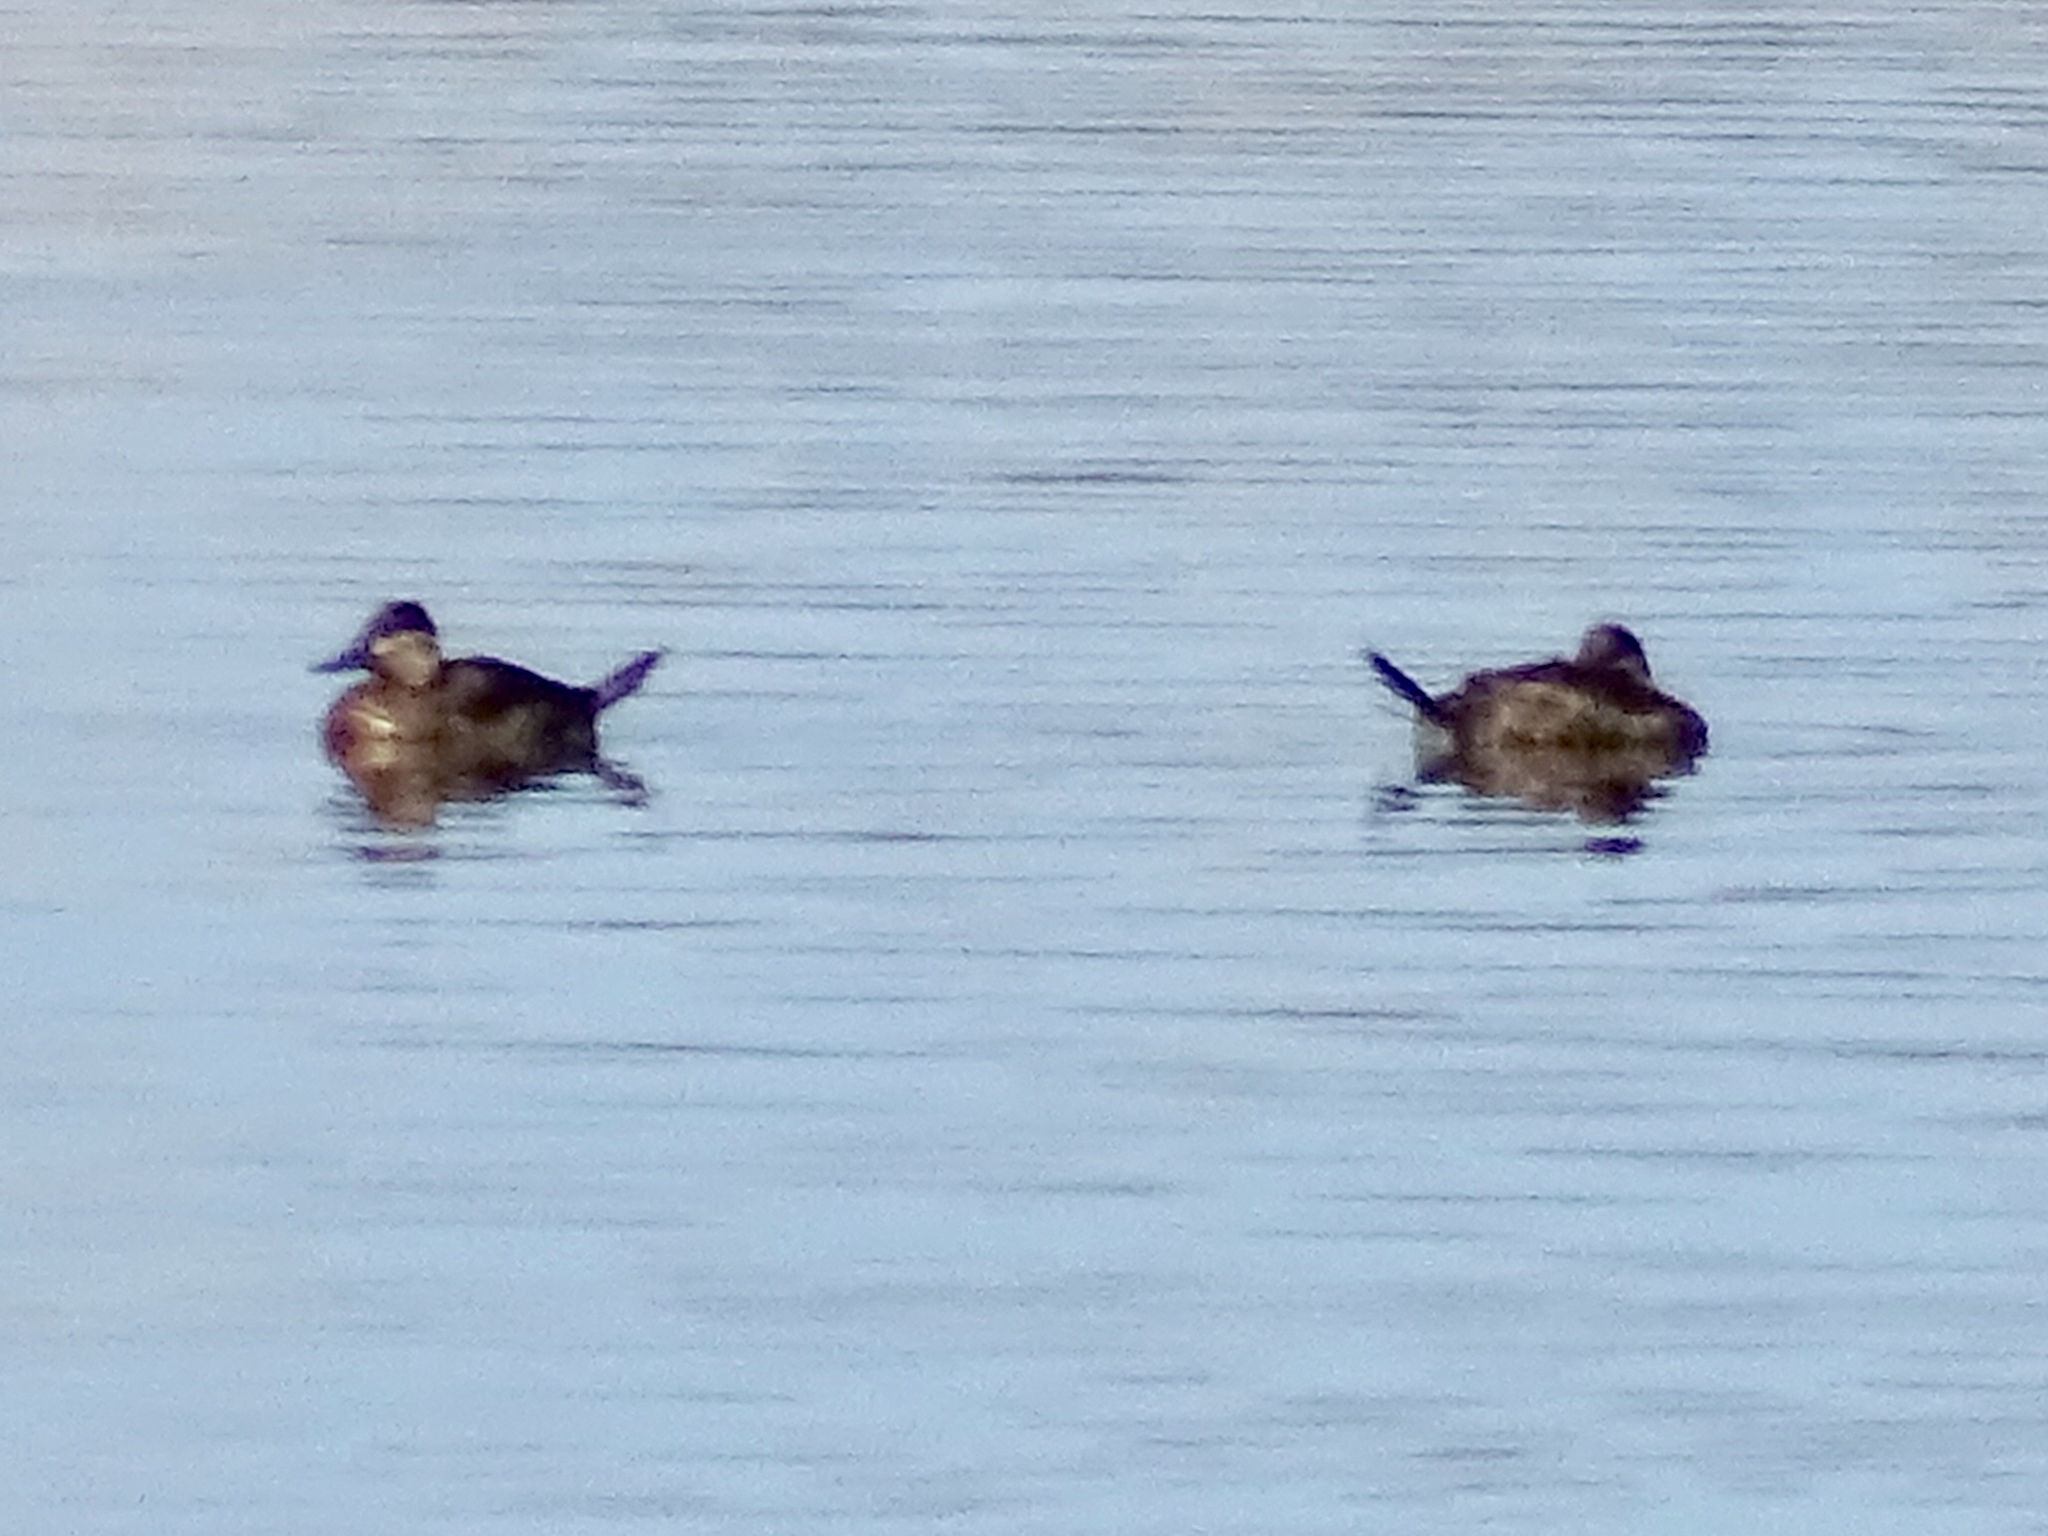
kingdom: Animalia
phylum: Chordata
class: Aves
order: Anseriformes
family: Anatidae
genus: Oxyura
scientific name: Oxyura jamaicensis
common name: Ruddy duck
